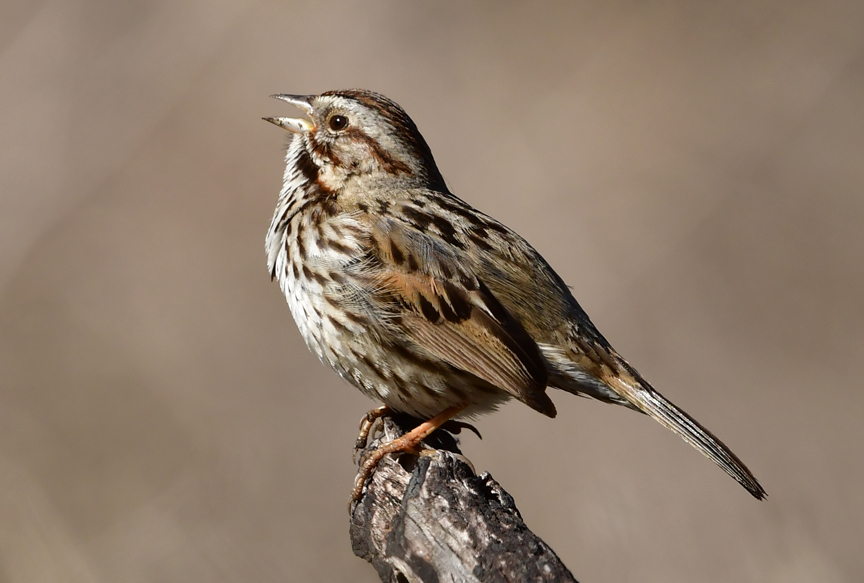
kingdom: Animalia
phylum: Chordata
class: Aves
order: Passeriformes
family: Passerellidae
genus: Melospiza
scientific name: Melospiza melodia
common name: Song sparrow
